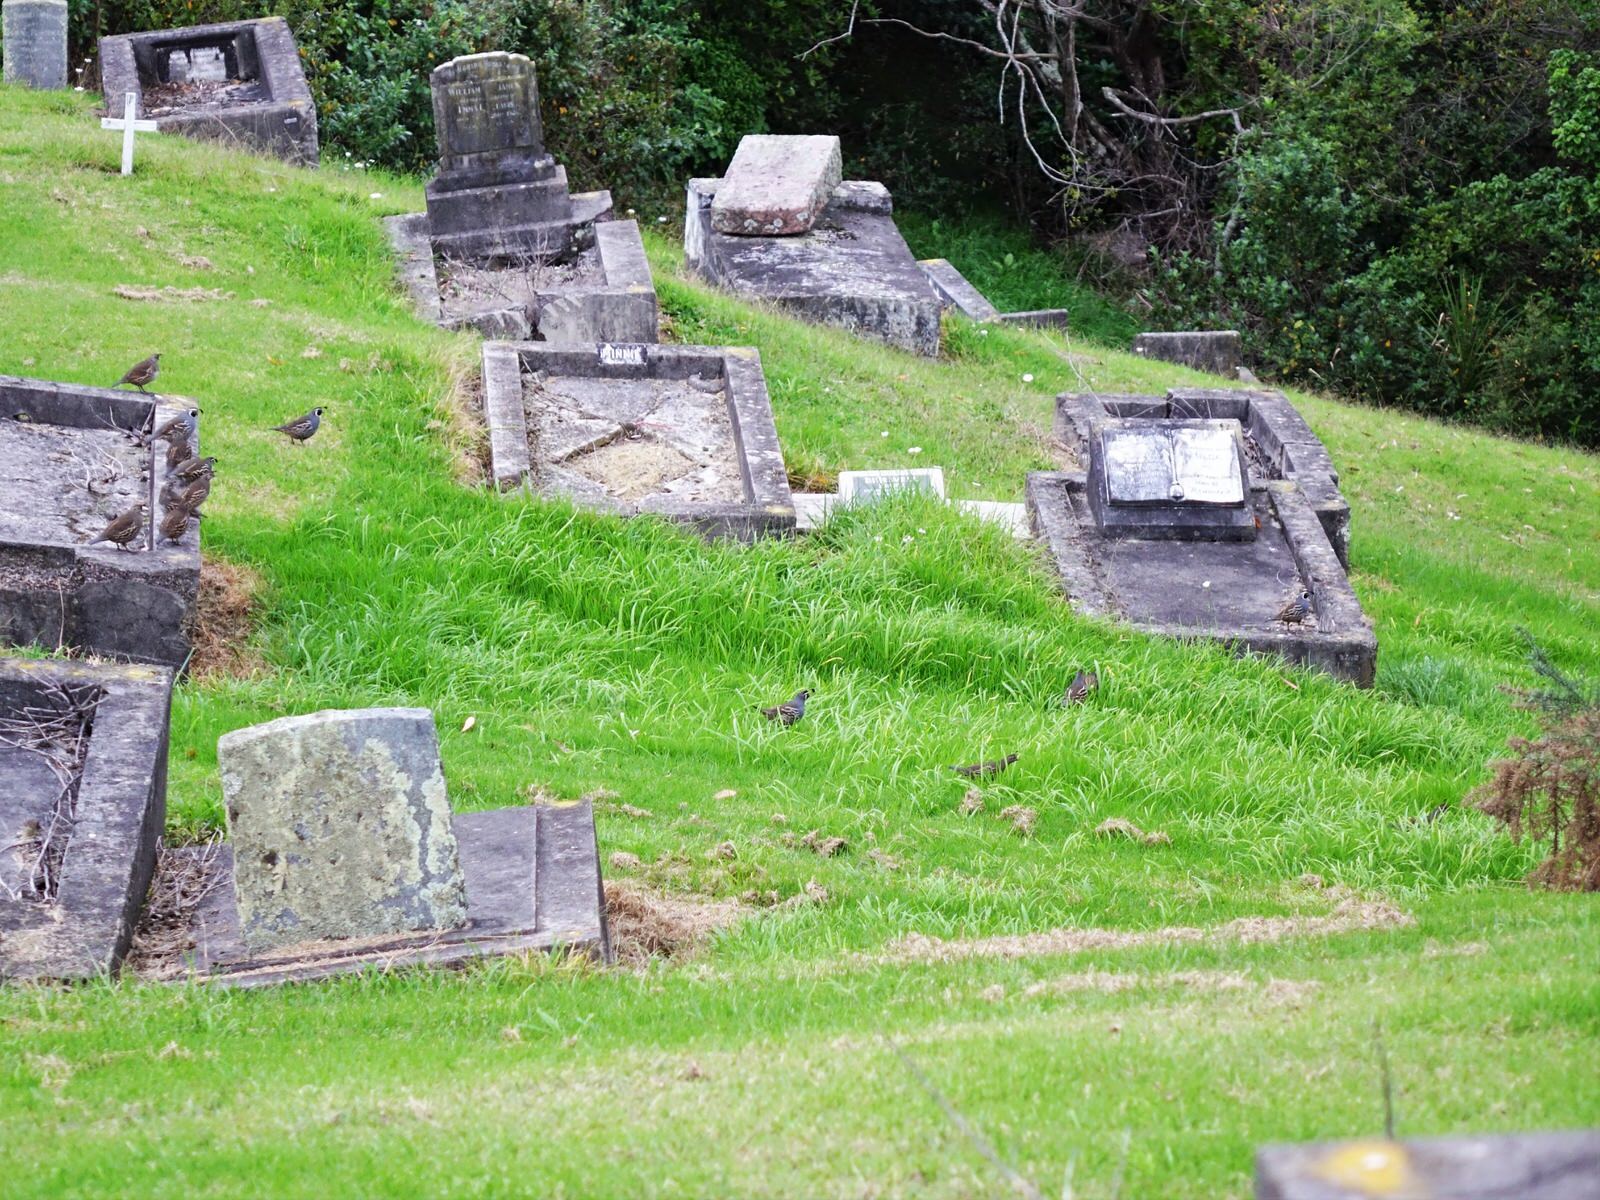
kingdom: Animalia
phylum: Chordata
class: Aves
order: Galliformes
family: Odontophoridae
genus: Callipepla
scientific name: Callipepla californica
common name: California quail
